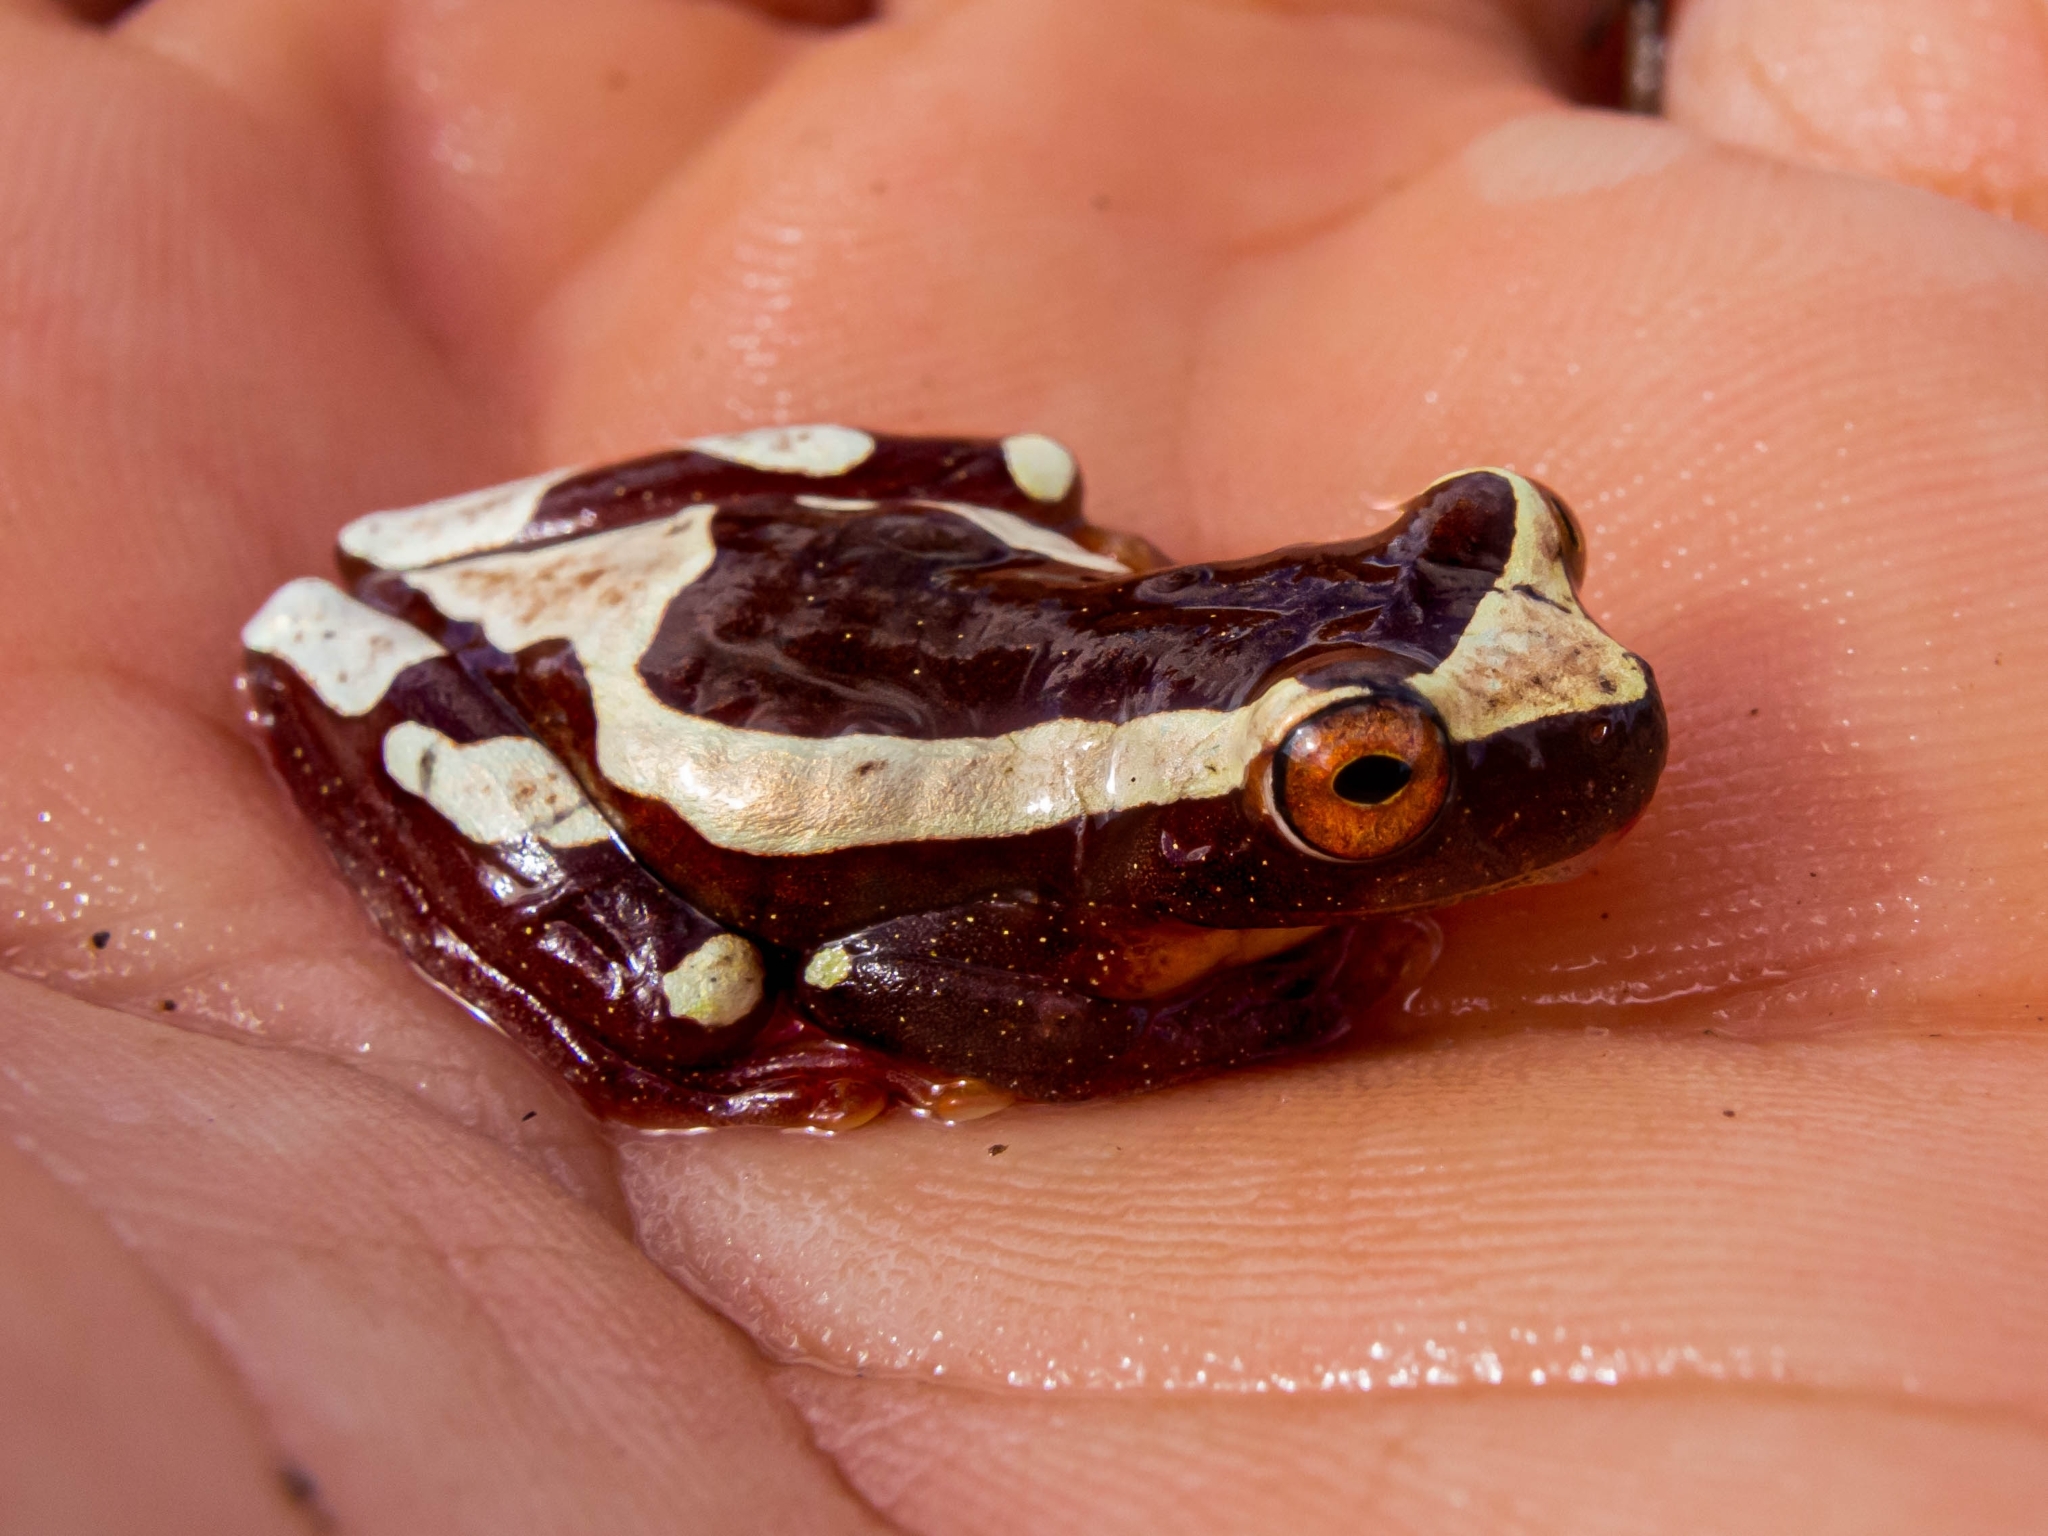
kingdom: Animalia
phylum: Chordata
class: Amphibia
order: Anura
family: Hylidae
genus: Dendropsophus
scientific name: Dendropsophus elegans
